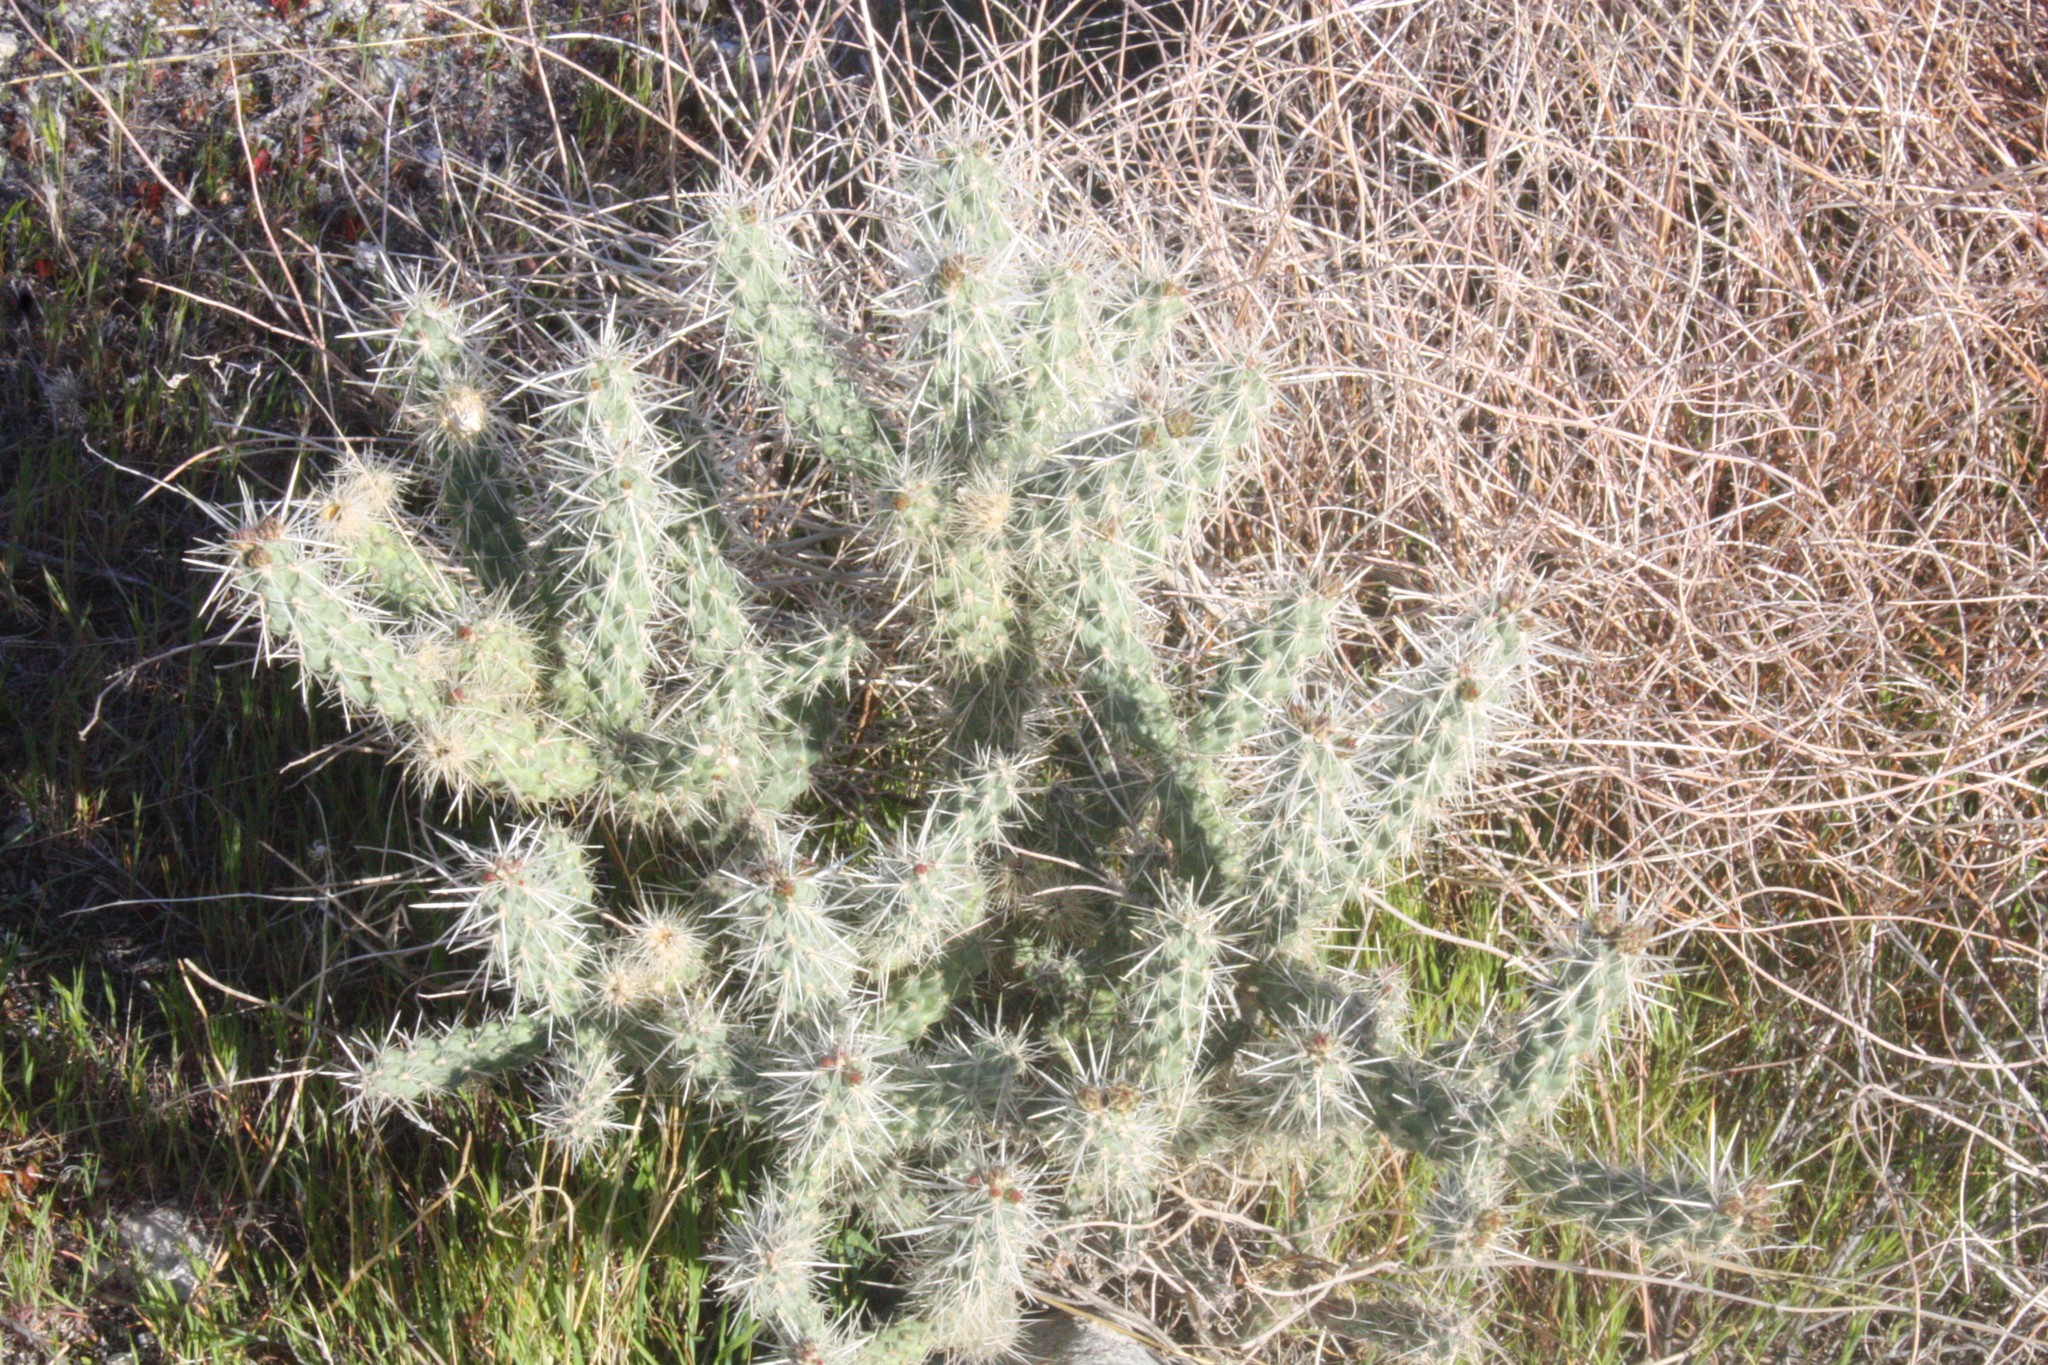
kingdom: Plantae
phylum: Tracheophyta
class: Magnoliopsida
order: Caryophyllales
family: Cactaceae
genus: Cylindropuntia
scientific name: Cylindropuntia echinocarpa
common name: Ground cholla
